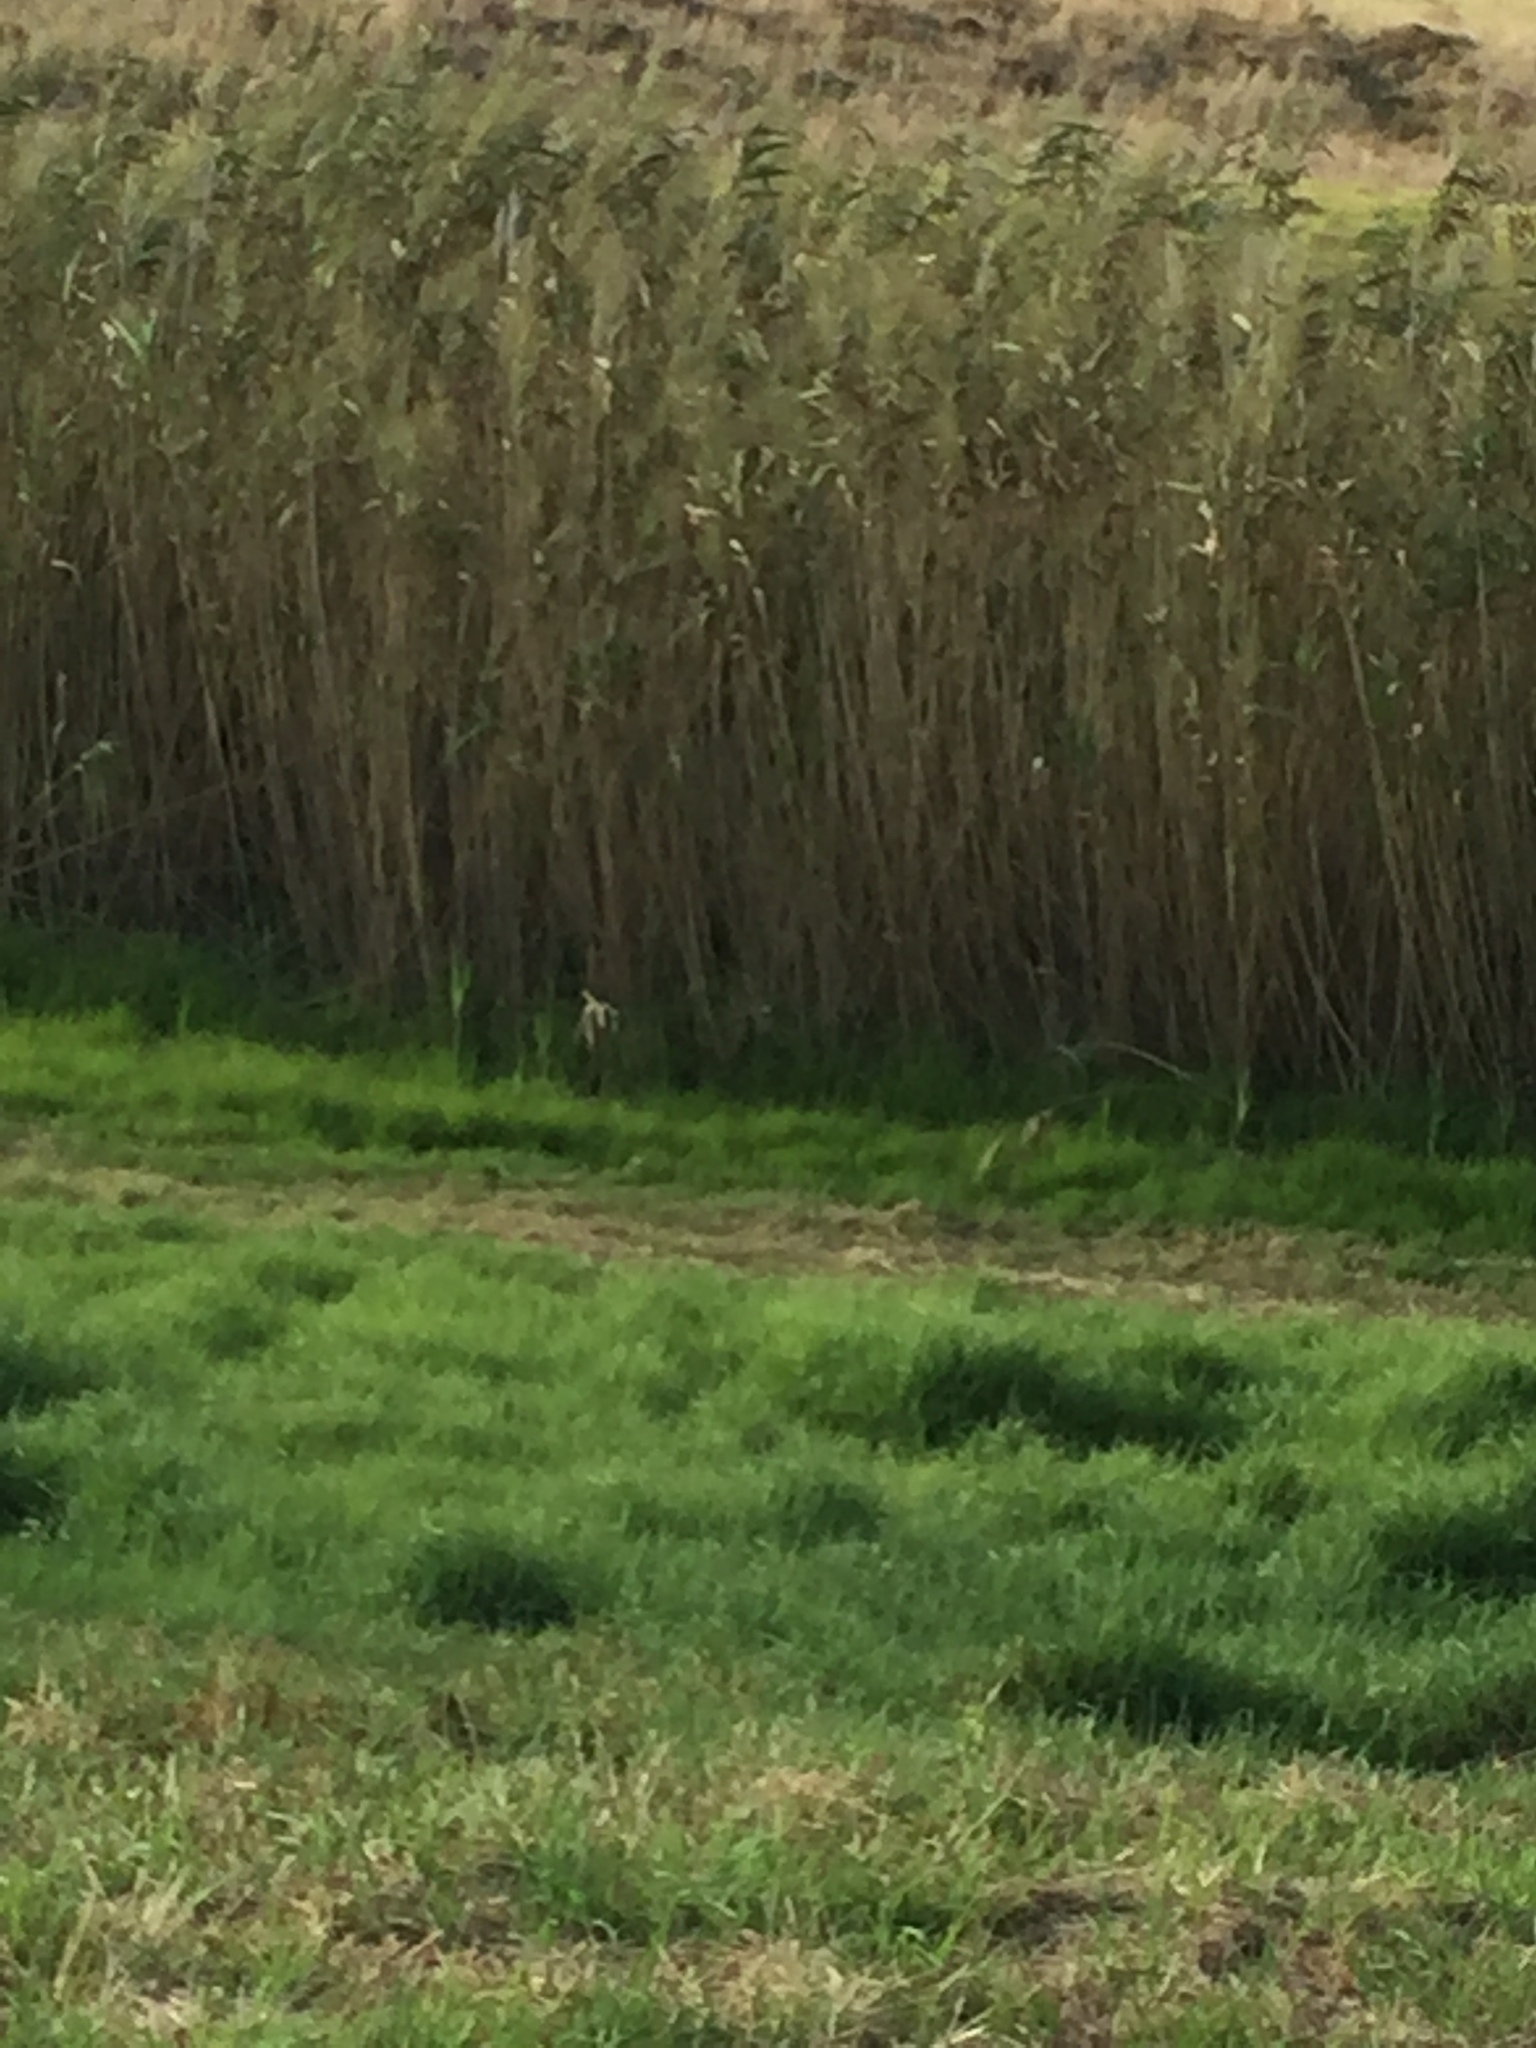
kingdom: Plantae
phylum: Tracheophyta
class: Liliopsida
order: Poales
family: Poaceae
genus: Phragmites
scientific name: Phragmites australis
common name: Common reed
